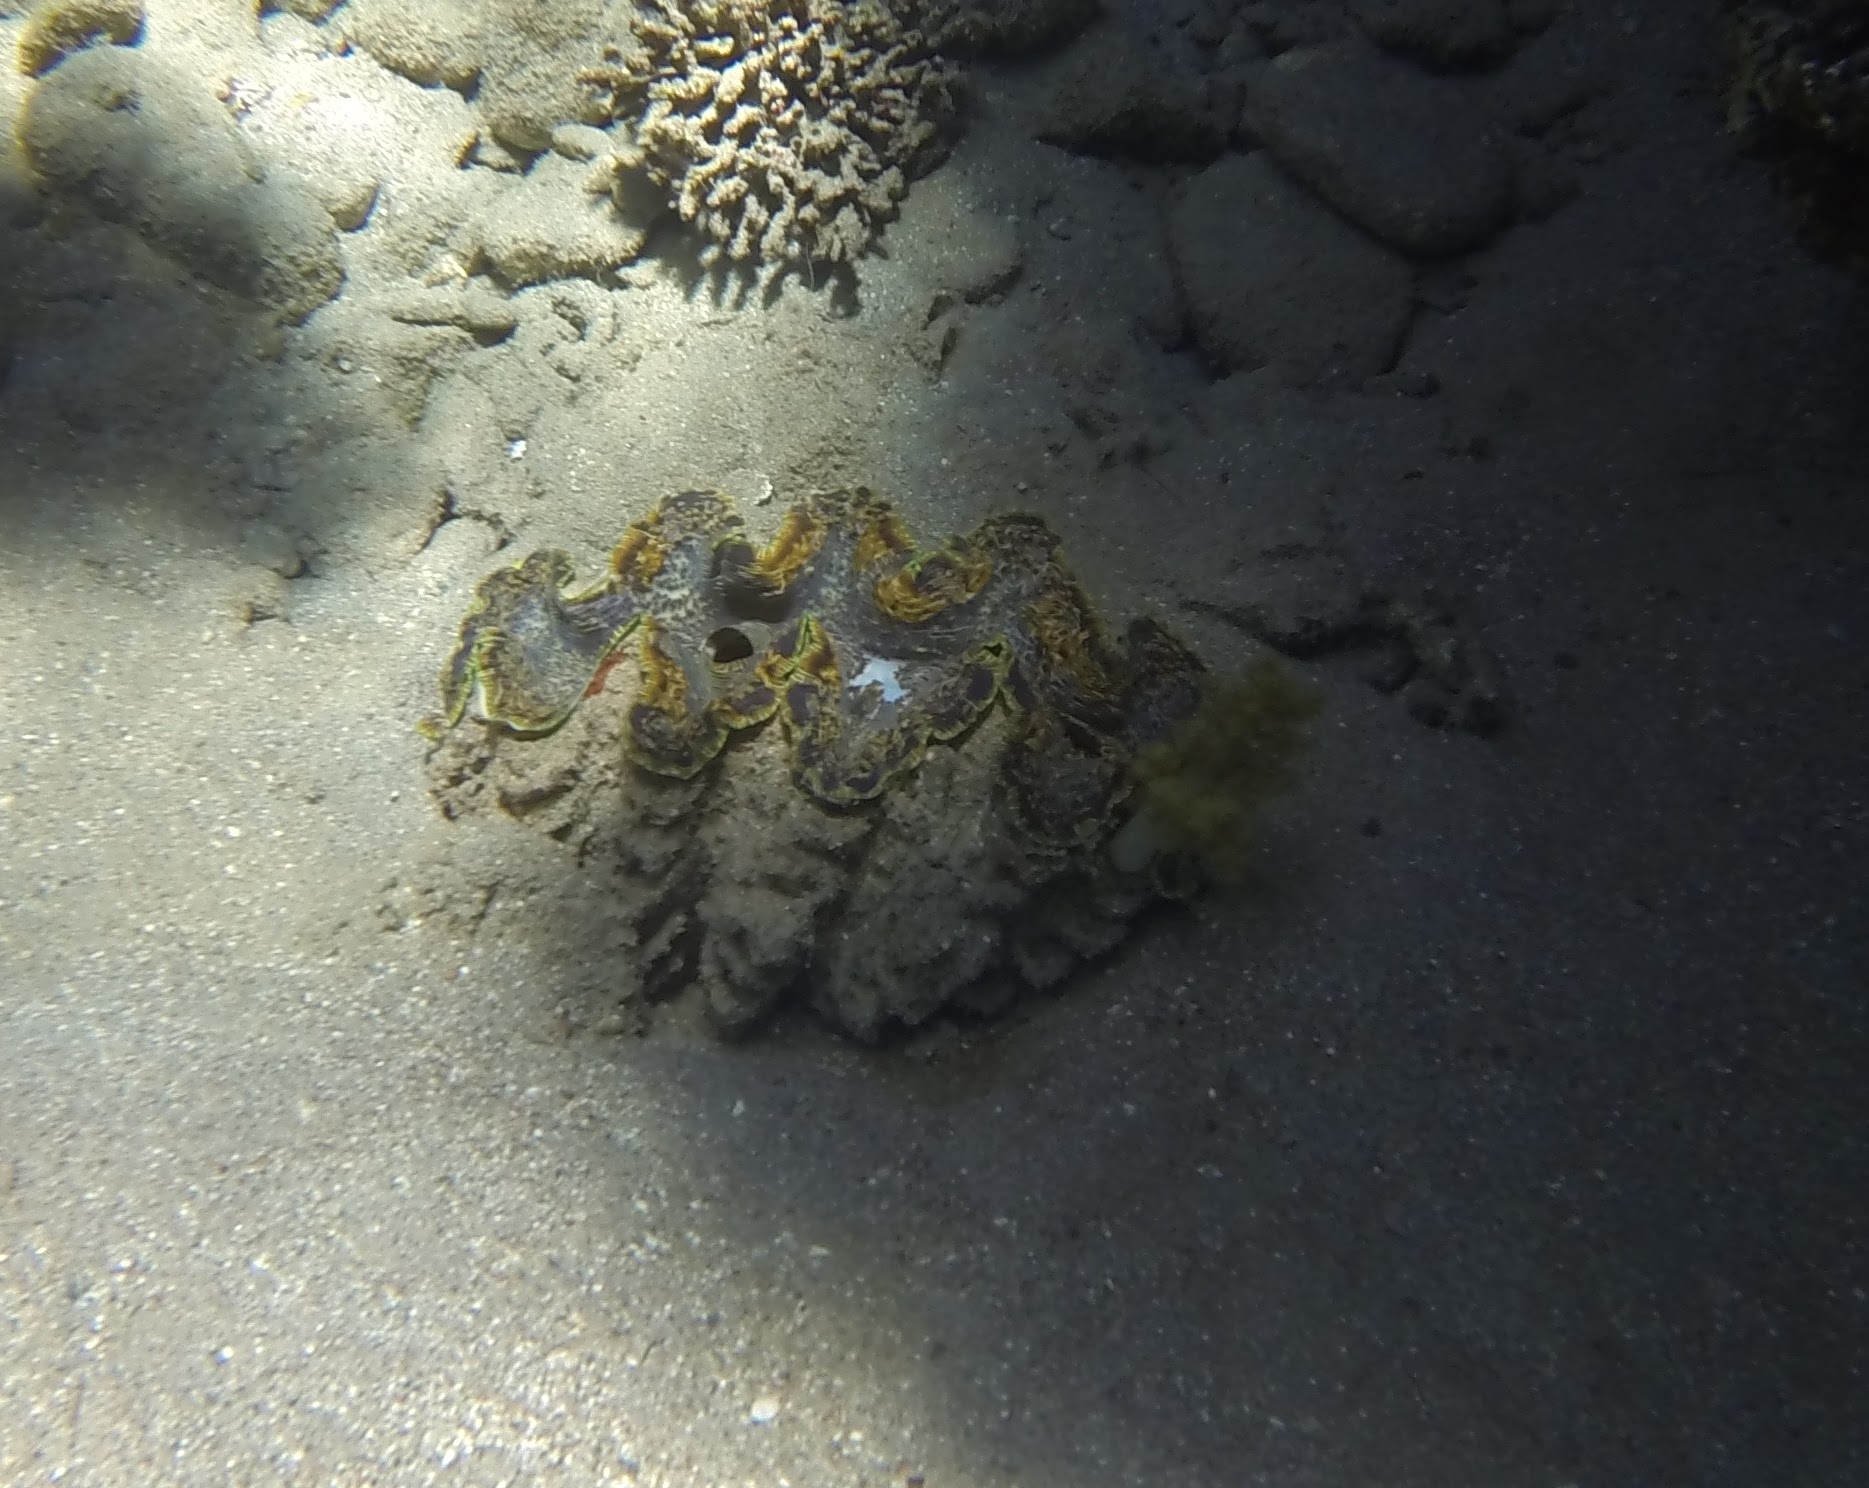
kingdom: Animalia
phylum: Mollusca
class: Bivalvia
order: Cardiida
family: Cardiidae
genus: Tridacna
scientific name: Tridacna squamosina
